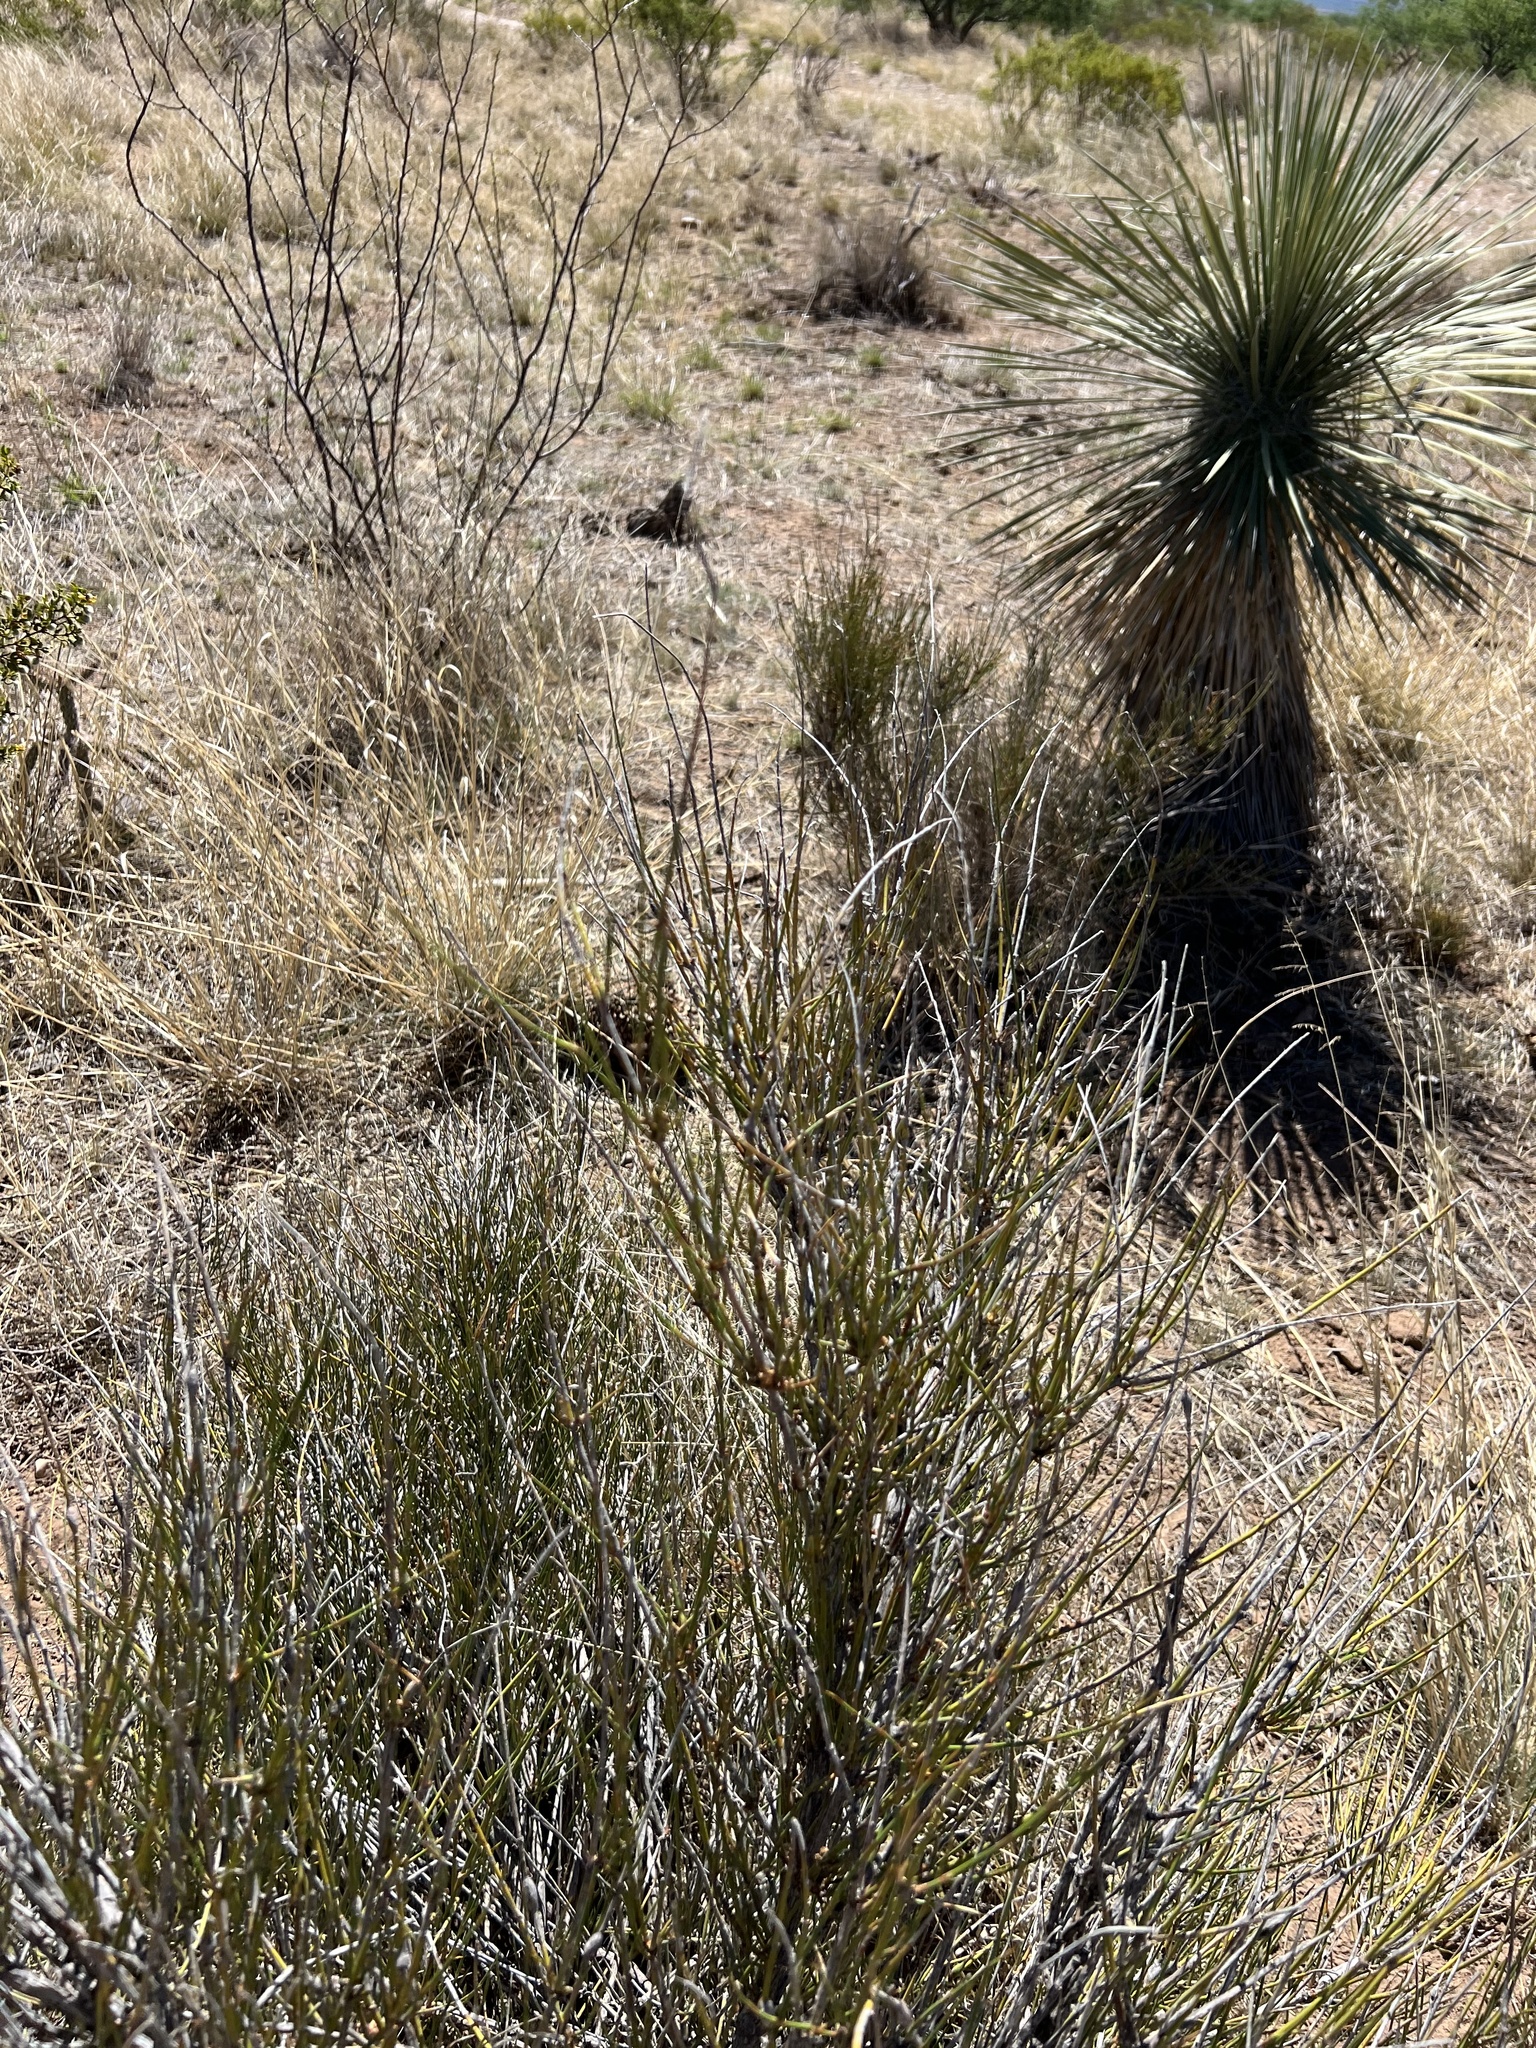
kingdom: Plantae
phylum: Tracheophyta
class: Gnetopsida
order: Ephedrales
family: Ephedraceae
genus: Ephedra
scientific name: Ephedra trifurca
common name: Mexican-tea
